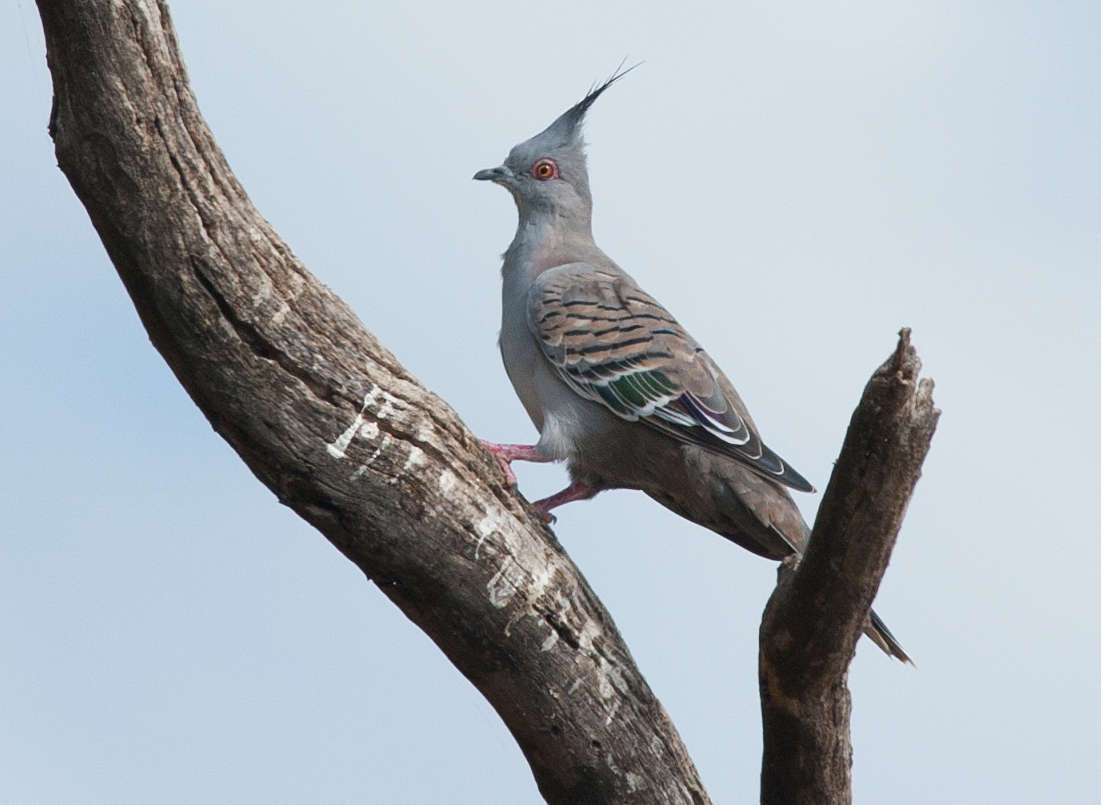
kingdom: Animalia
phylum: Chordata
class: Aves
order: Columbiformes
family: Columbidae
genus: Ocyphaps
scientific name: Ocyphaps lophotes
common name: Crested pigeon
